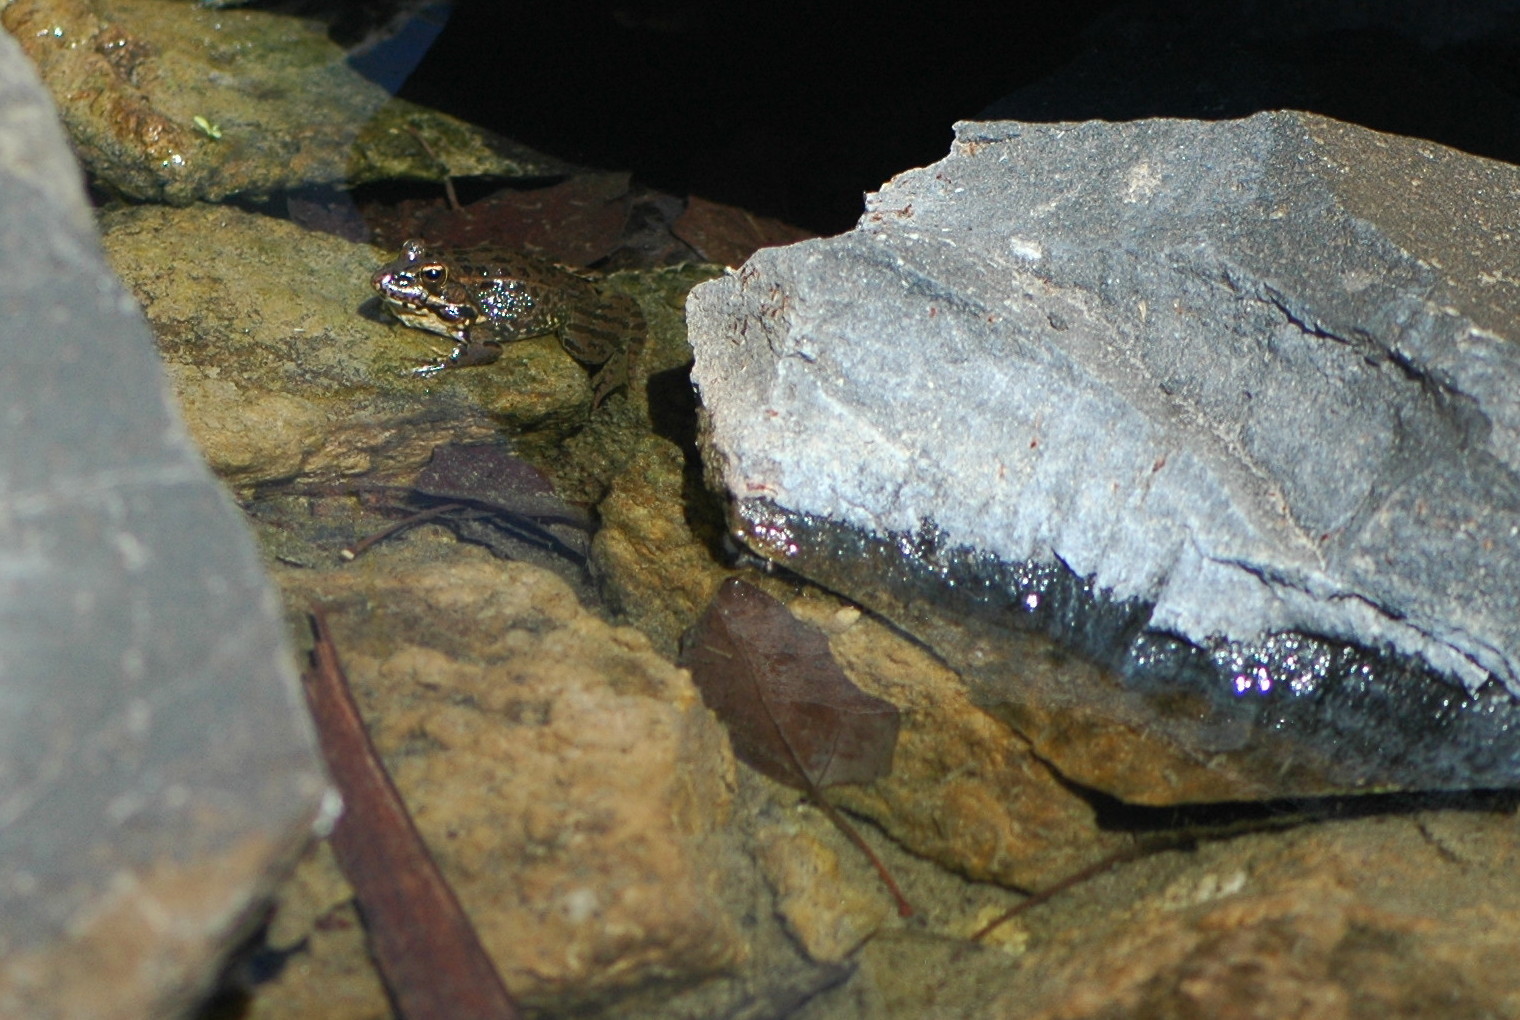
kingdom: Animalia
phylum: Chordata
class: Amphibia
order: Anura
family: Ranidae
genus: Pelophylax
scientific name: Pelophylax perezi
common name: Perez's frog
